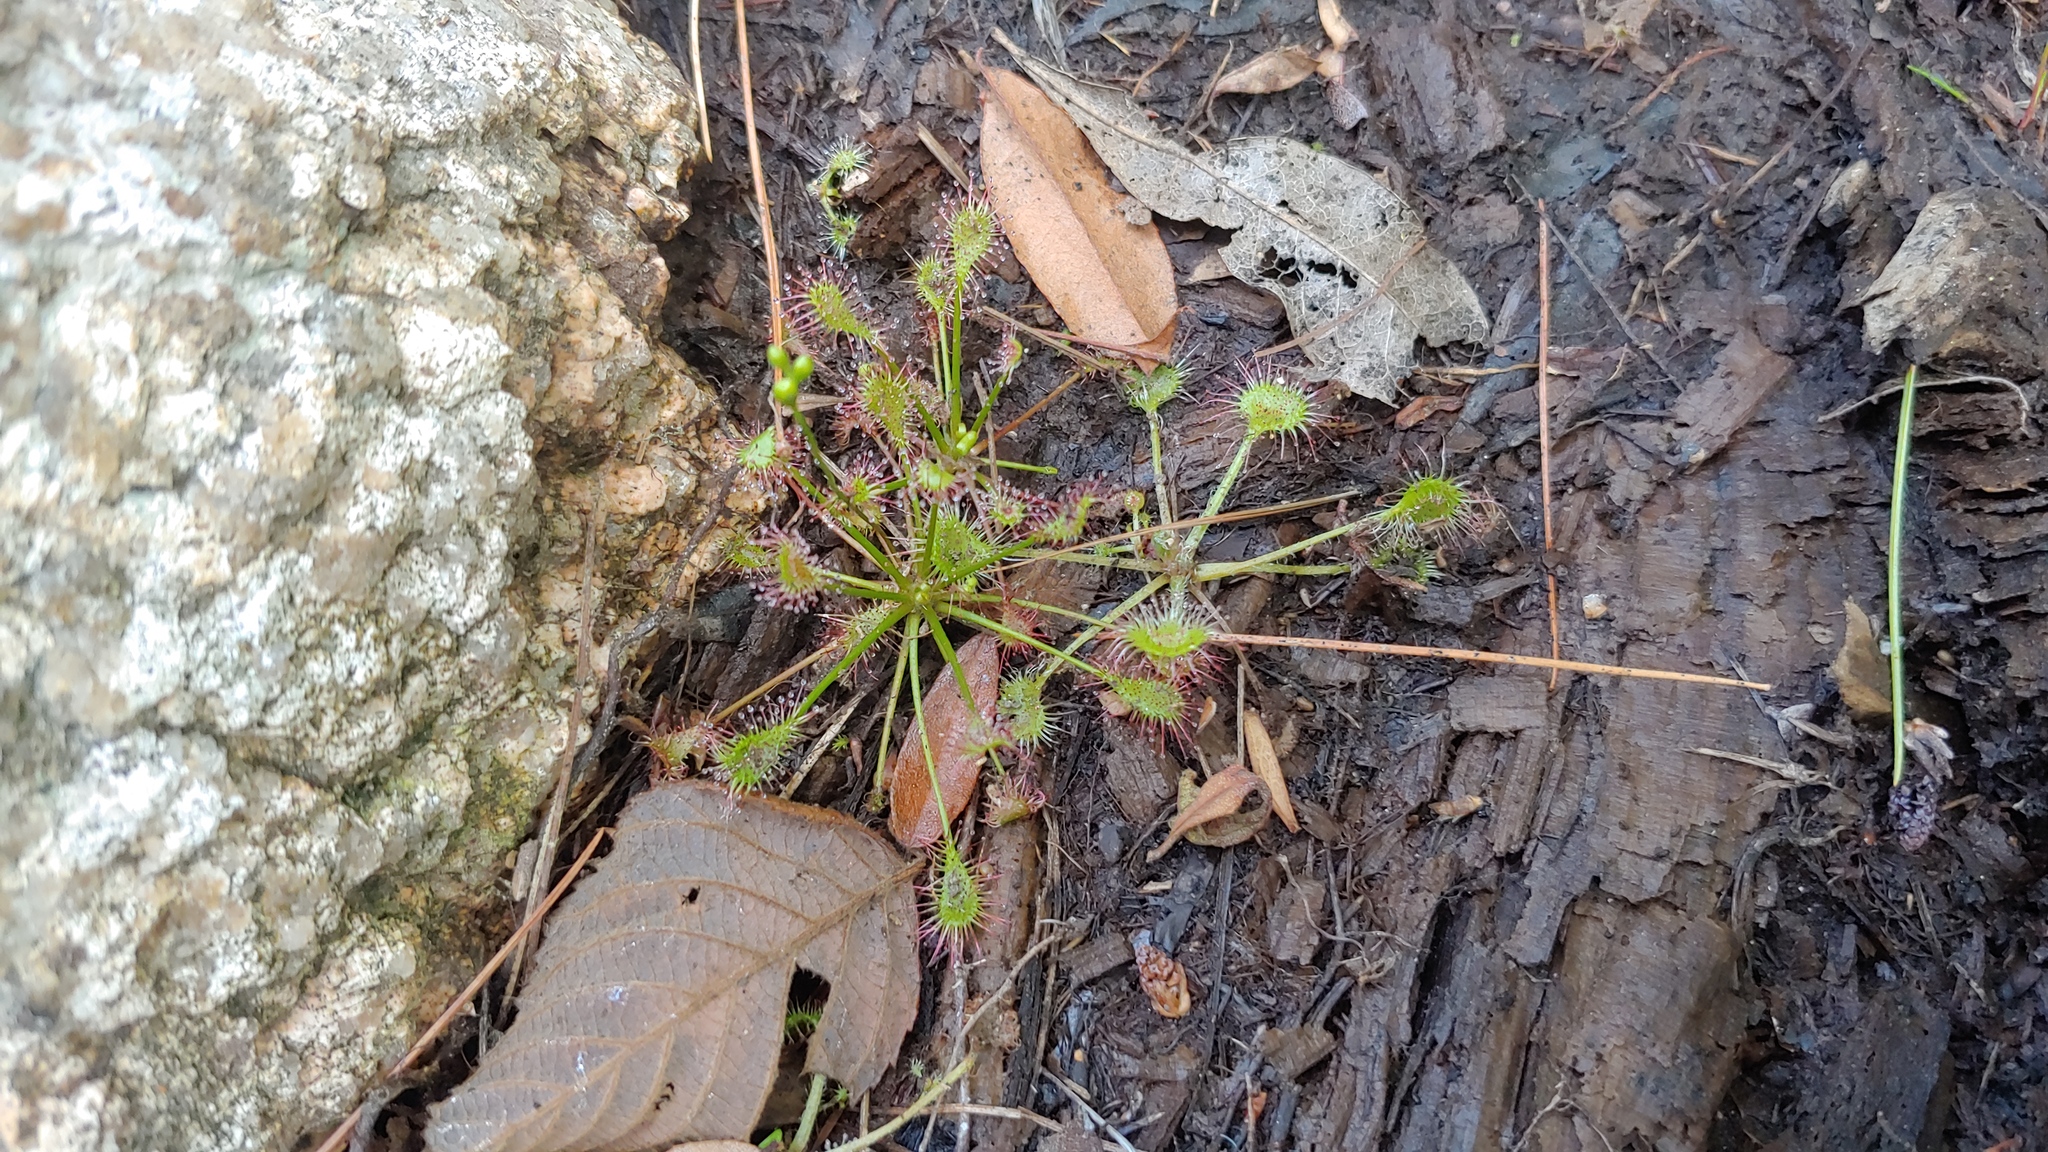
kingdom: Plantae
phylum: Tracheophyta
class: Magnoliopsida
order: Caryophyllales
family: Droseraceae
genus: Drosera
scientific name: Drosera rotundifolia
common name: Round-leaved sundew
